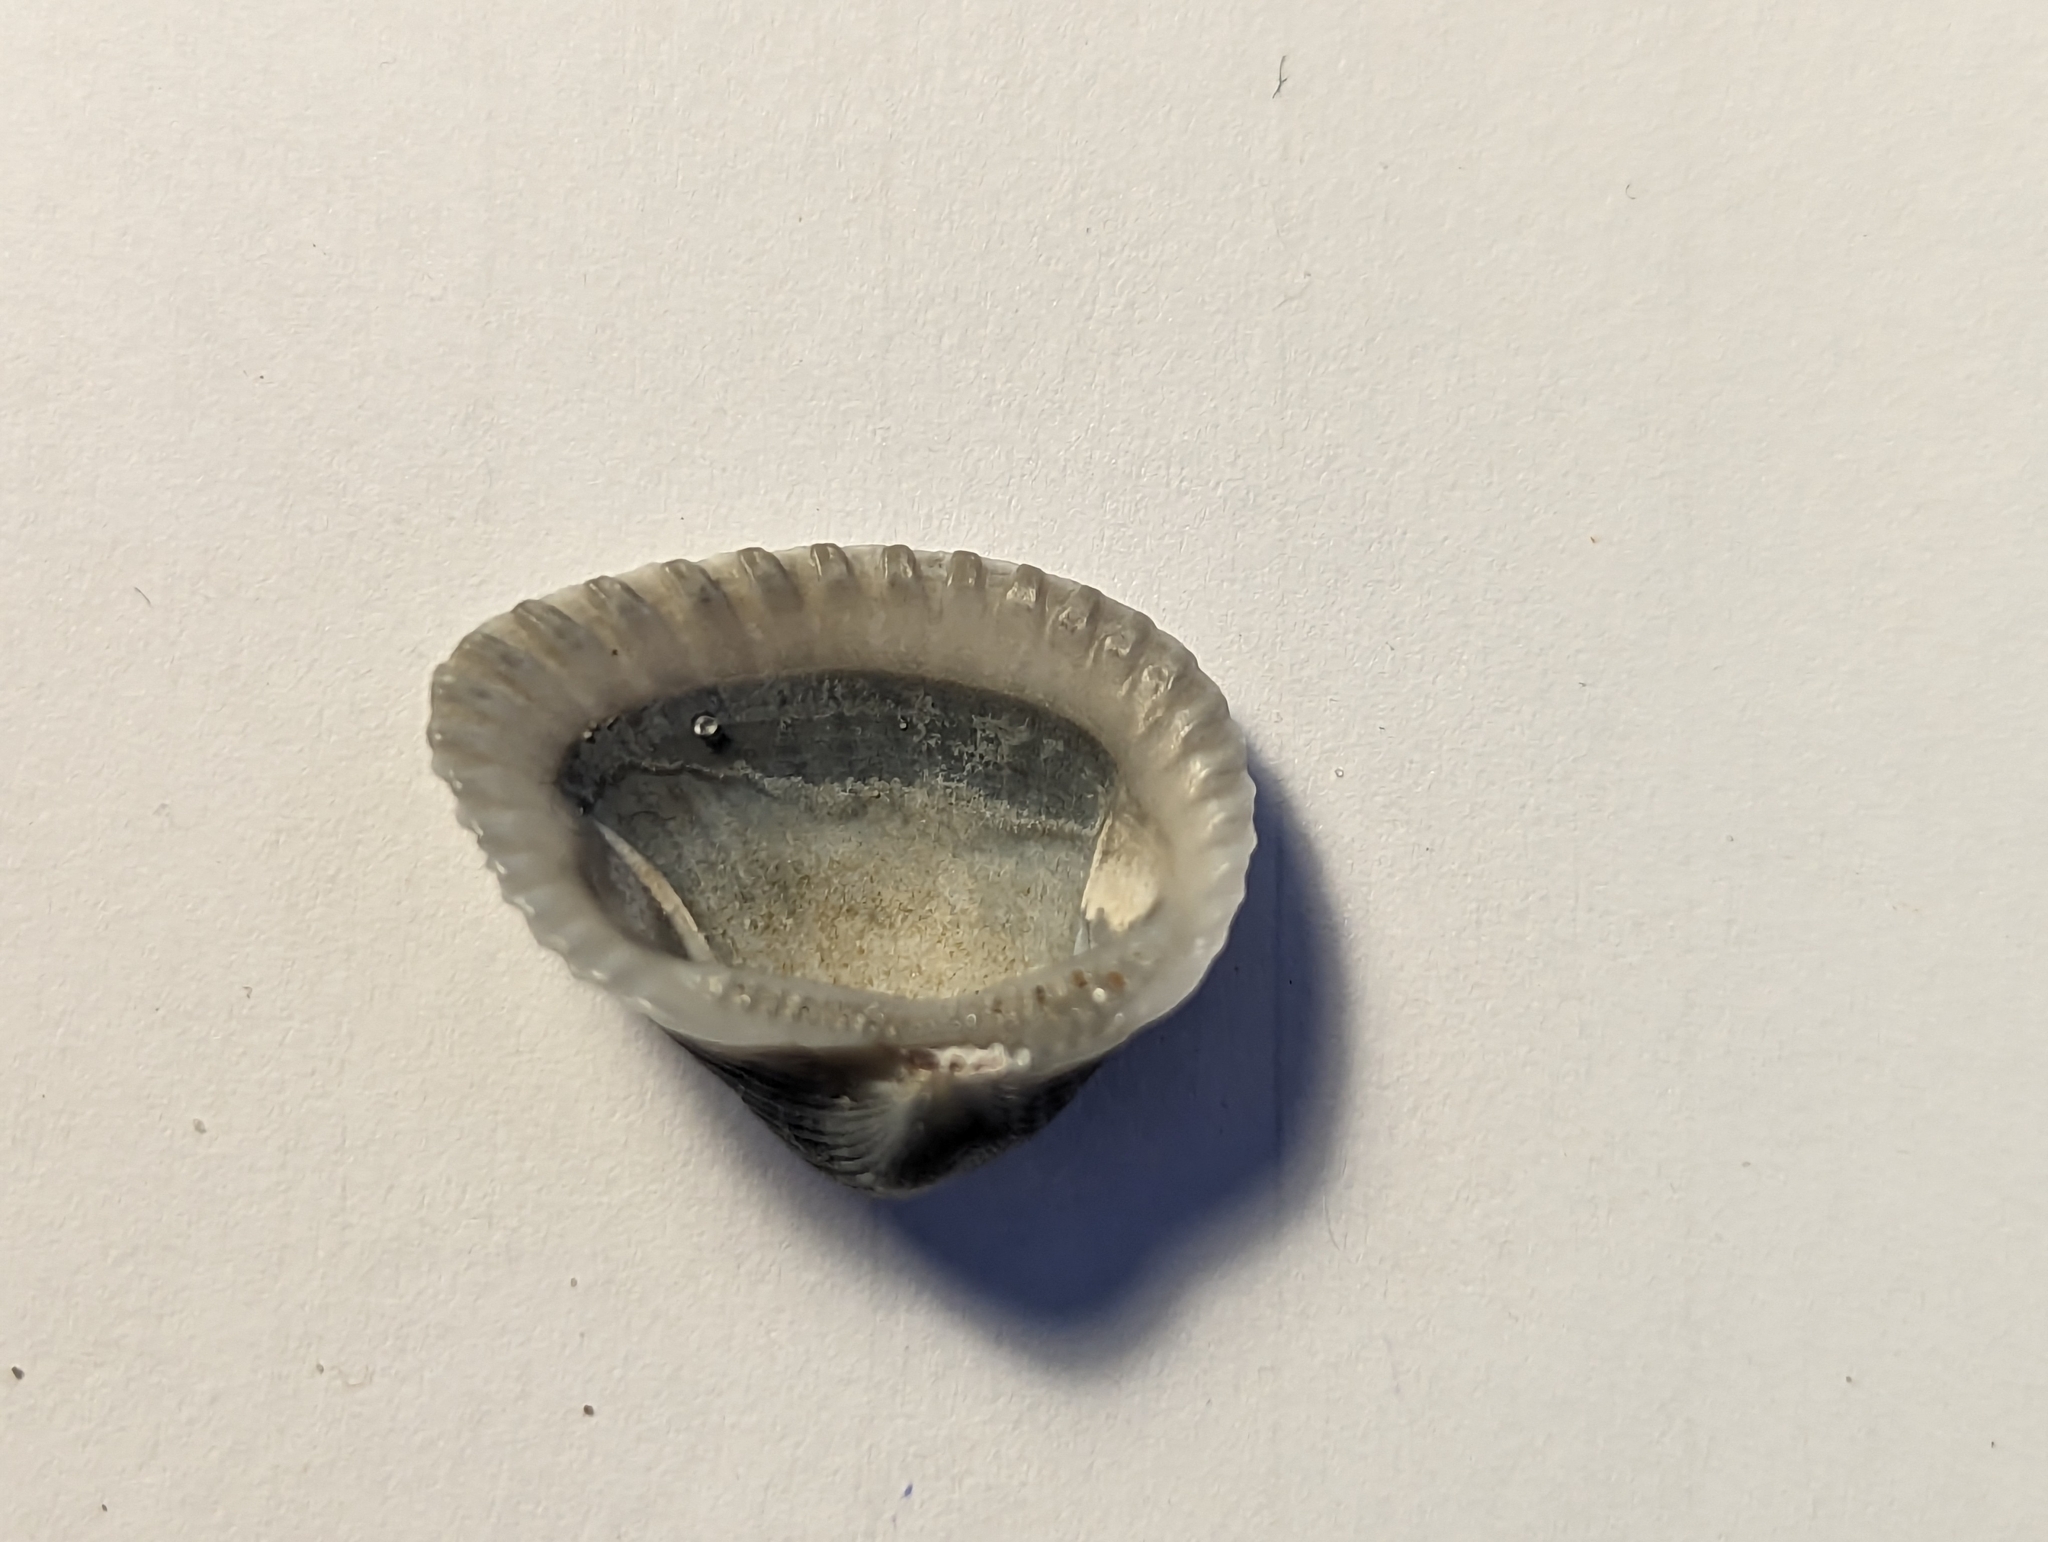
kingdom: Animalia
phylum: Mollusca
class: Bivalvia
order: Arcida
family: Noetiidae
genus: Noetia
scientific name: Noetia ponderosa
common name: Ponderous ark
